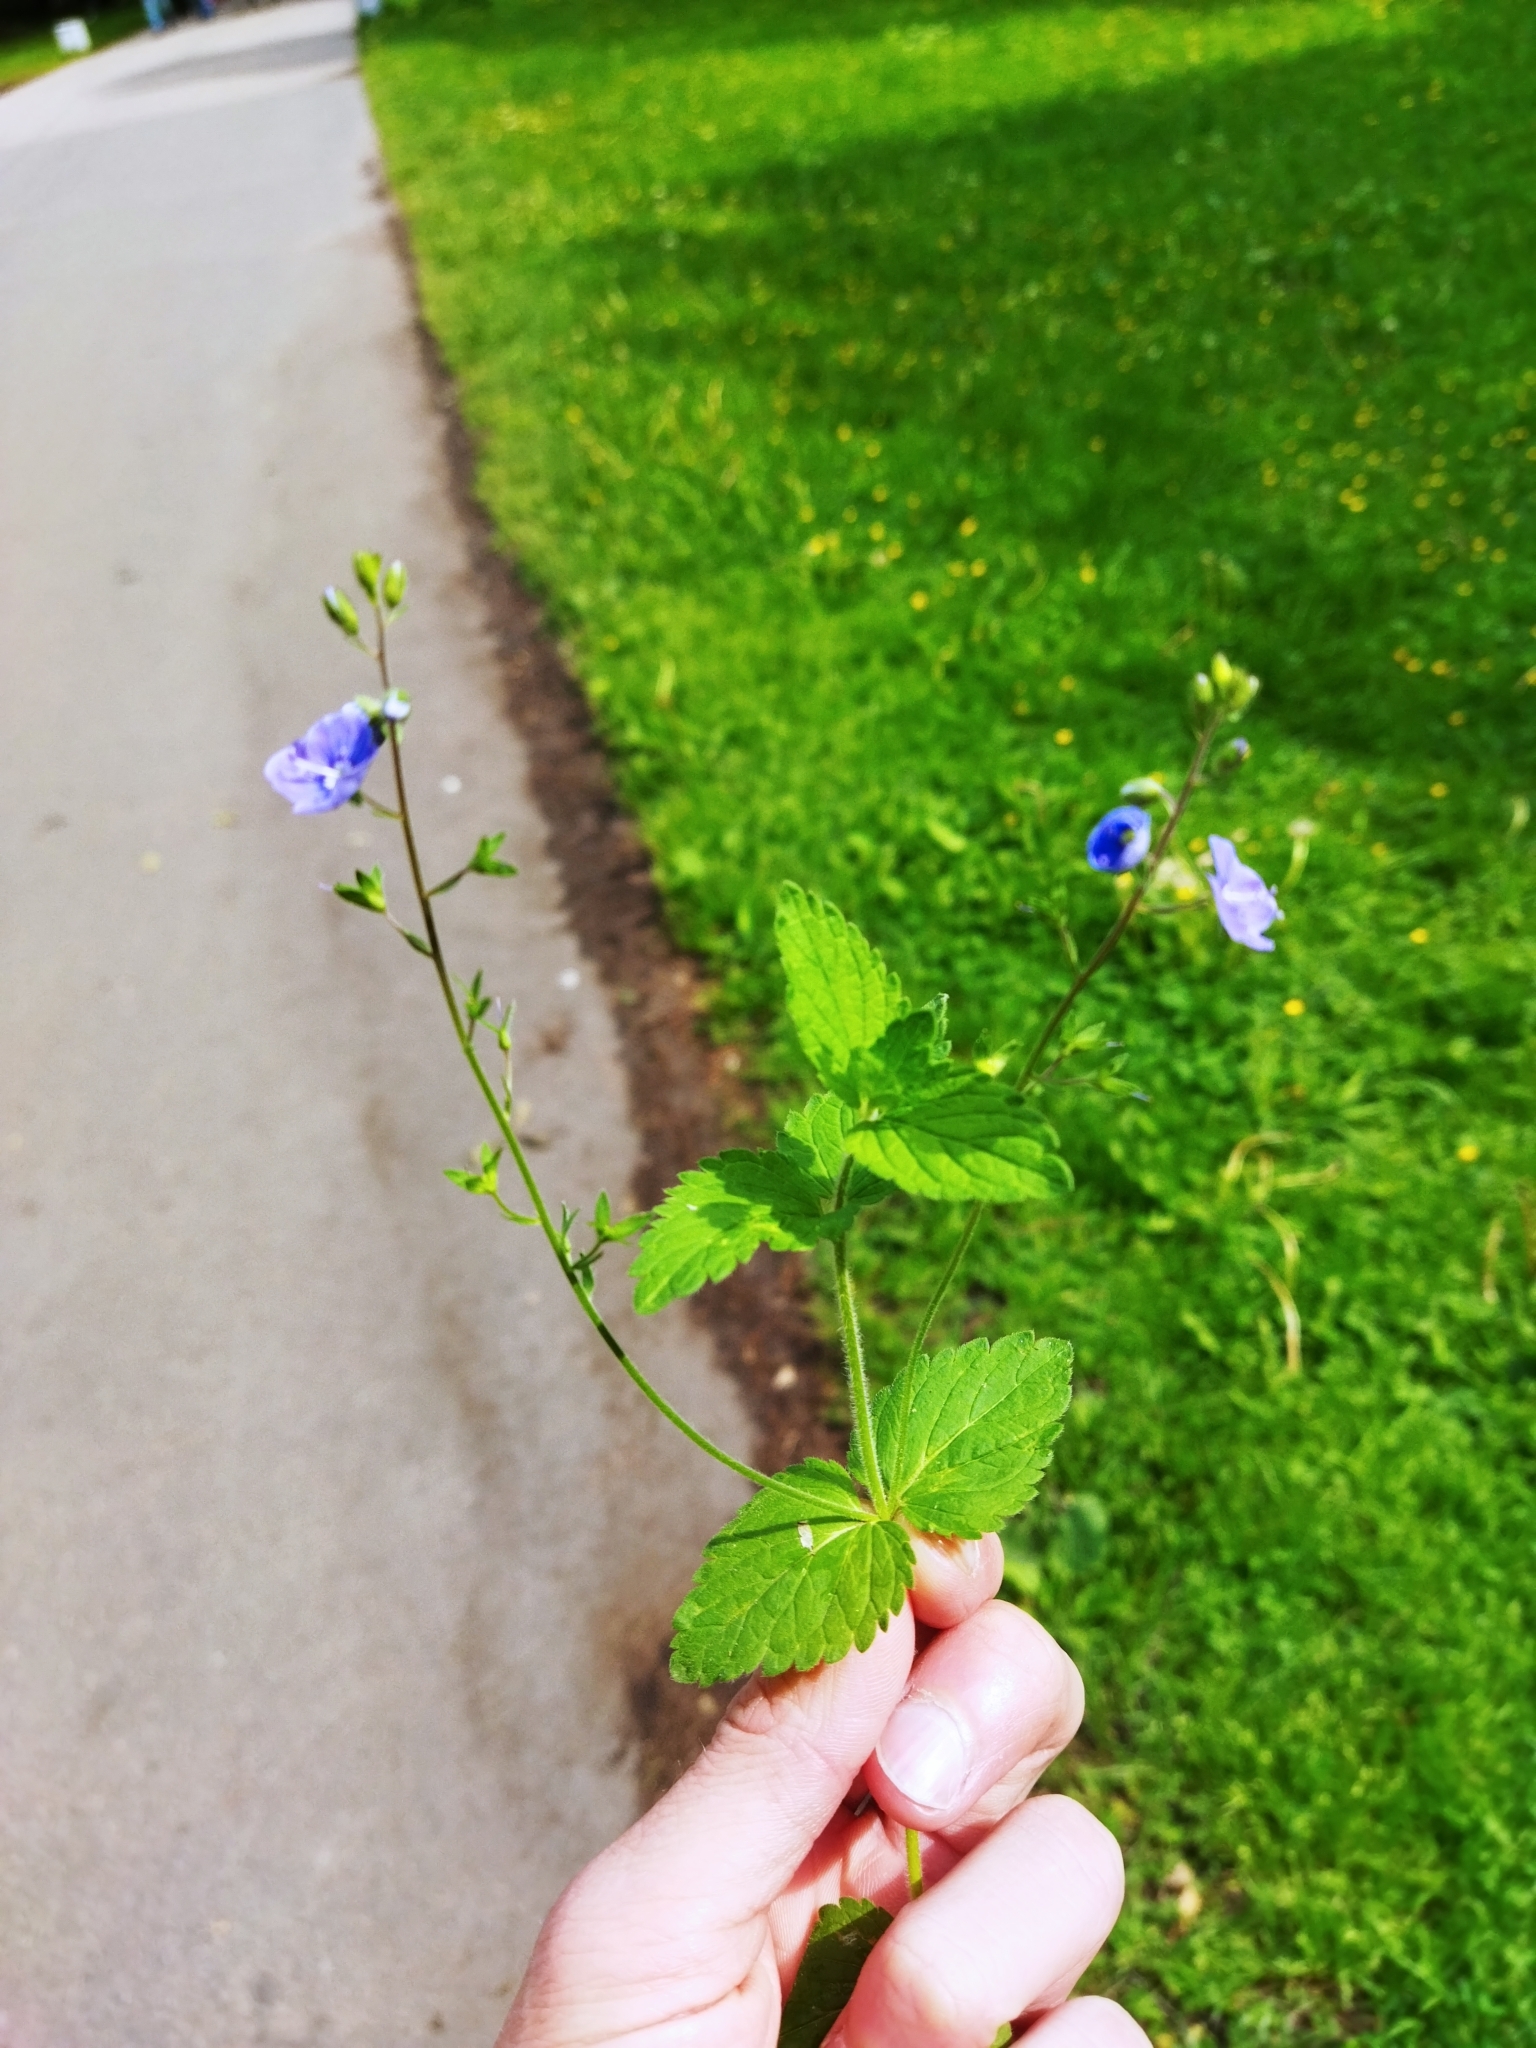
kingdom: Plantae
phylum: Tracheophyta
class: Magnoliopsida
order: Lamiales
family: Plantaginaceae
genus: Veronica
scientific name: Veronica chamaedrys
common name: Germander speedwell
